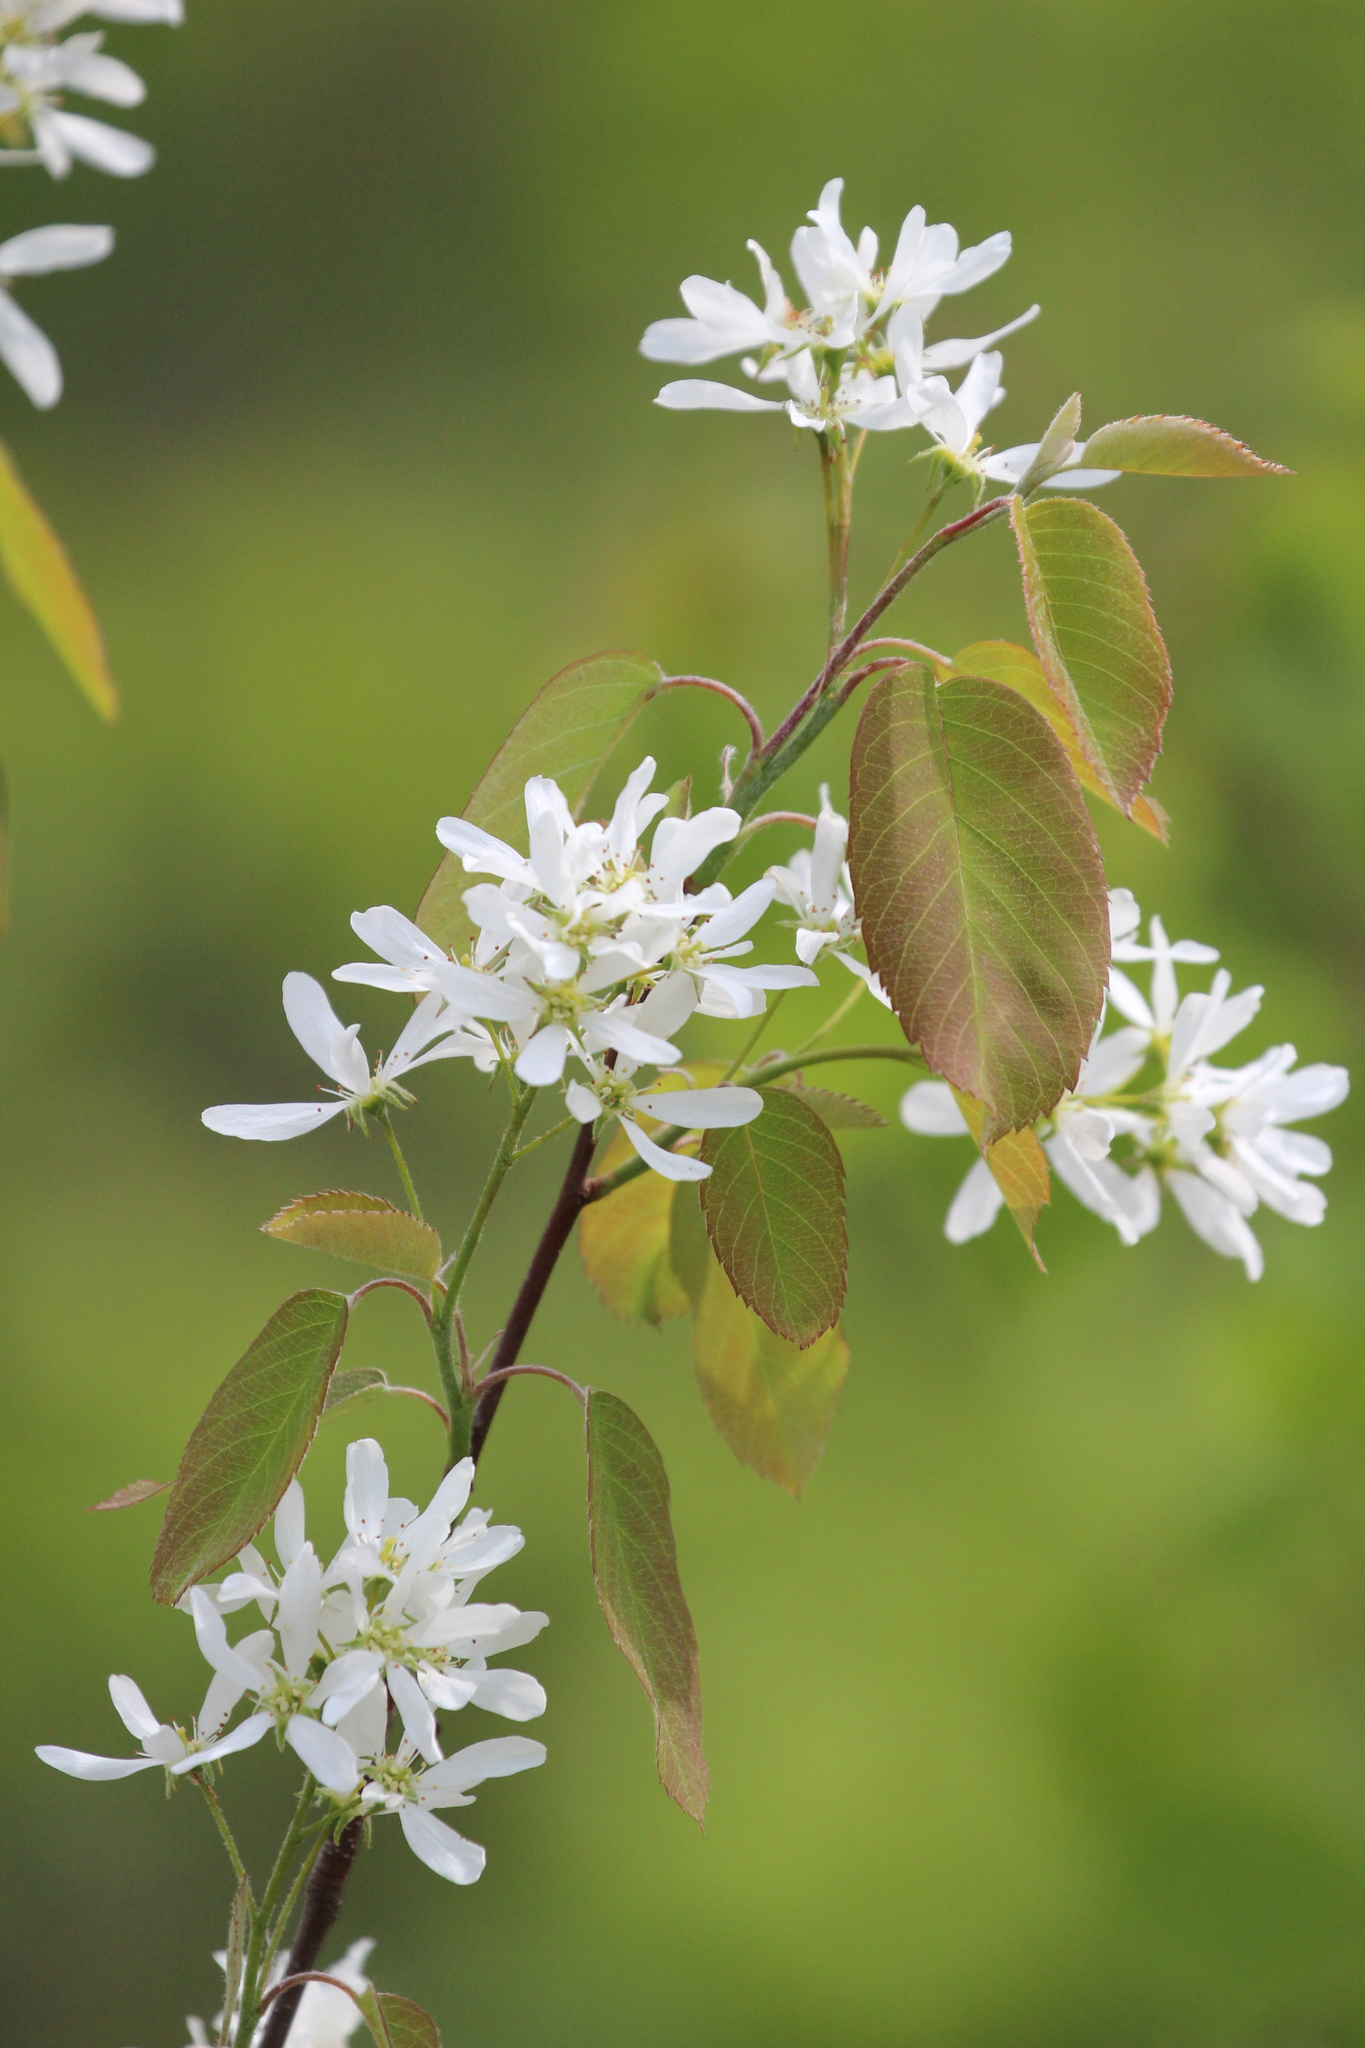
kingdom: Plantae
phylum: Tracheophyta
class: Magnoliopsida
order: Rosales
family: Rosaceae
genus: Amelanchier
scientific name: Amelanchier alnifolia
